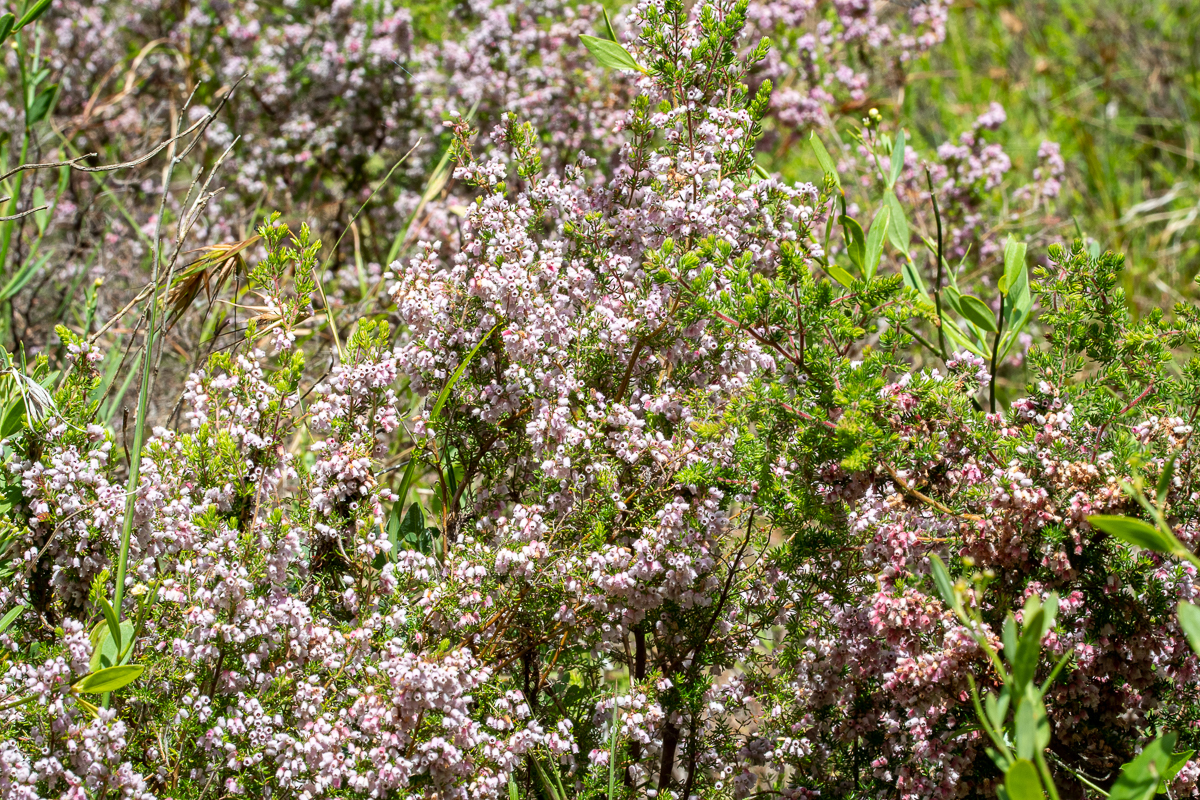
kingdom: Plantae
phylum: Tracheophyta
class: Magnoliopsida
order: Ericales
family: Ericaceae
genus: Erica
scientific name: Erica parviflora
